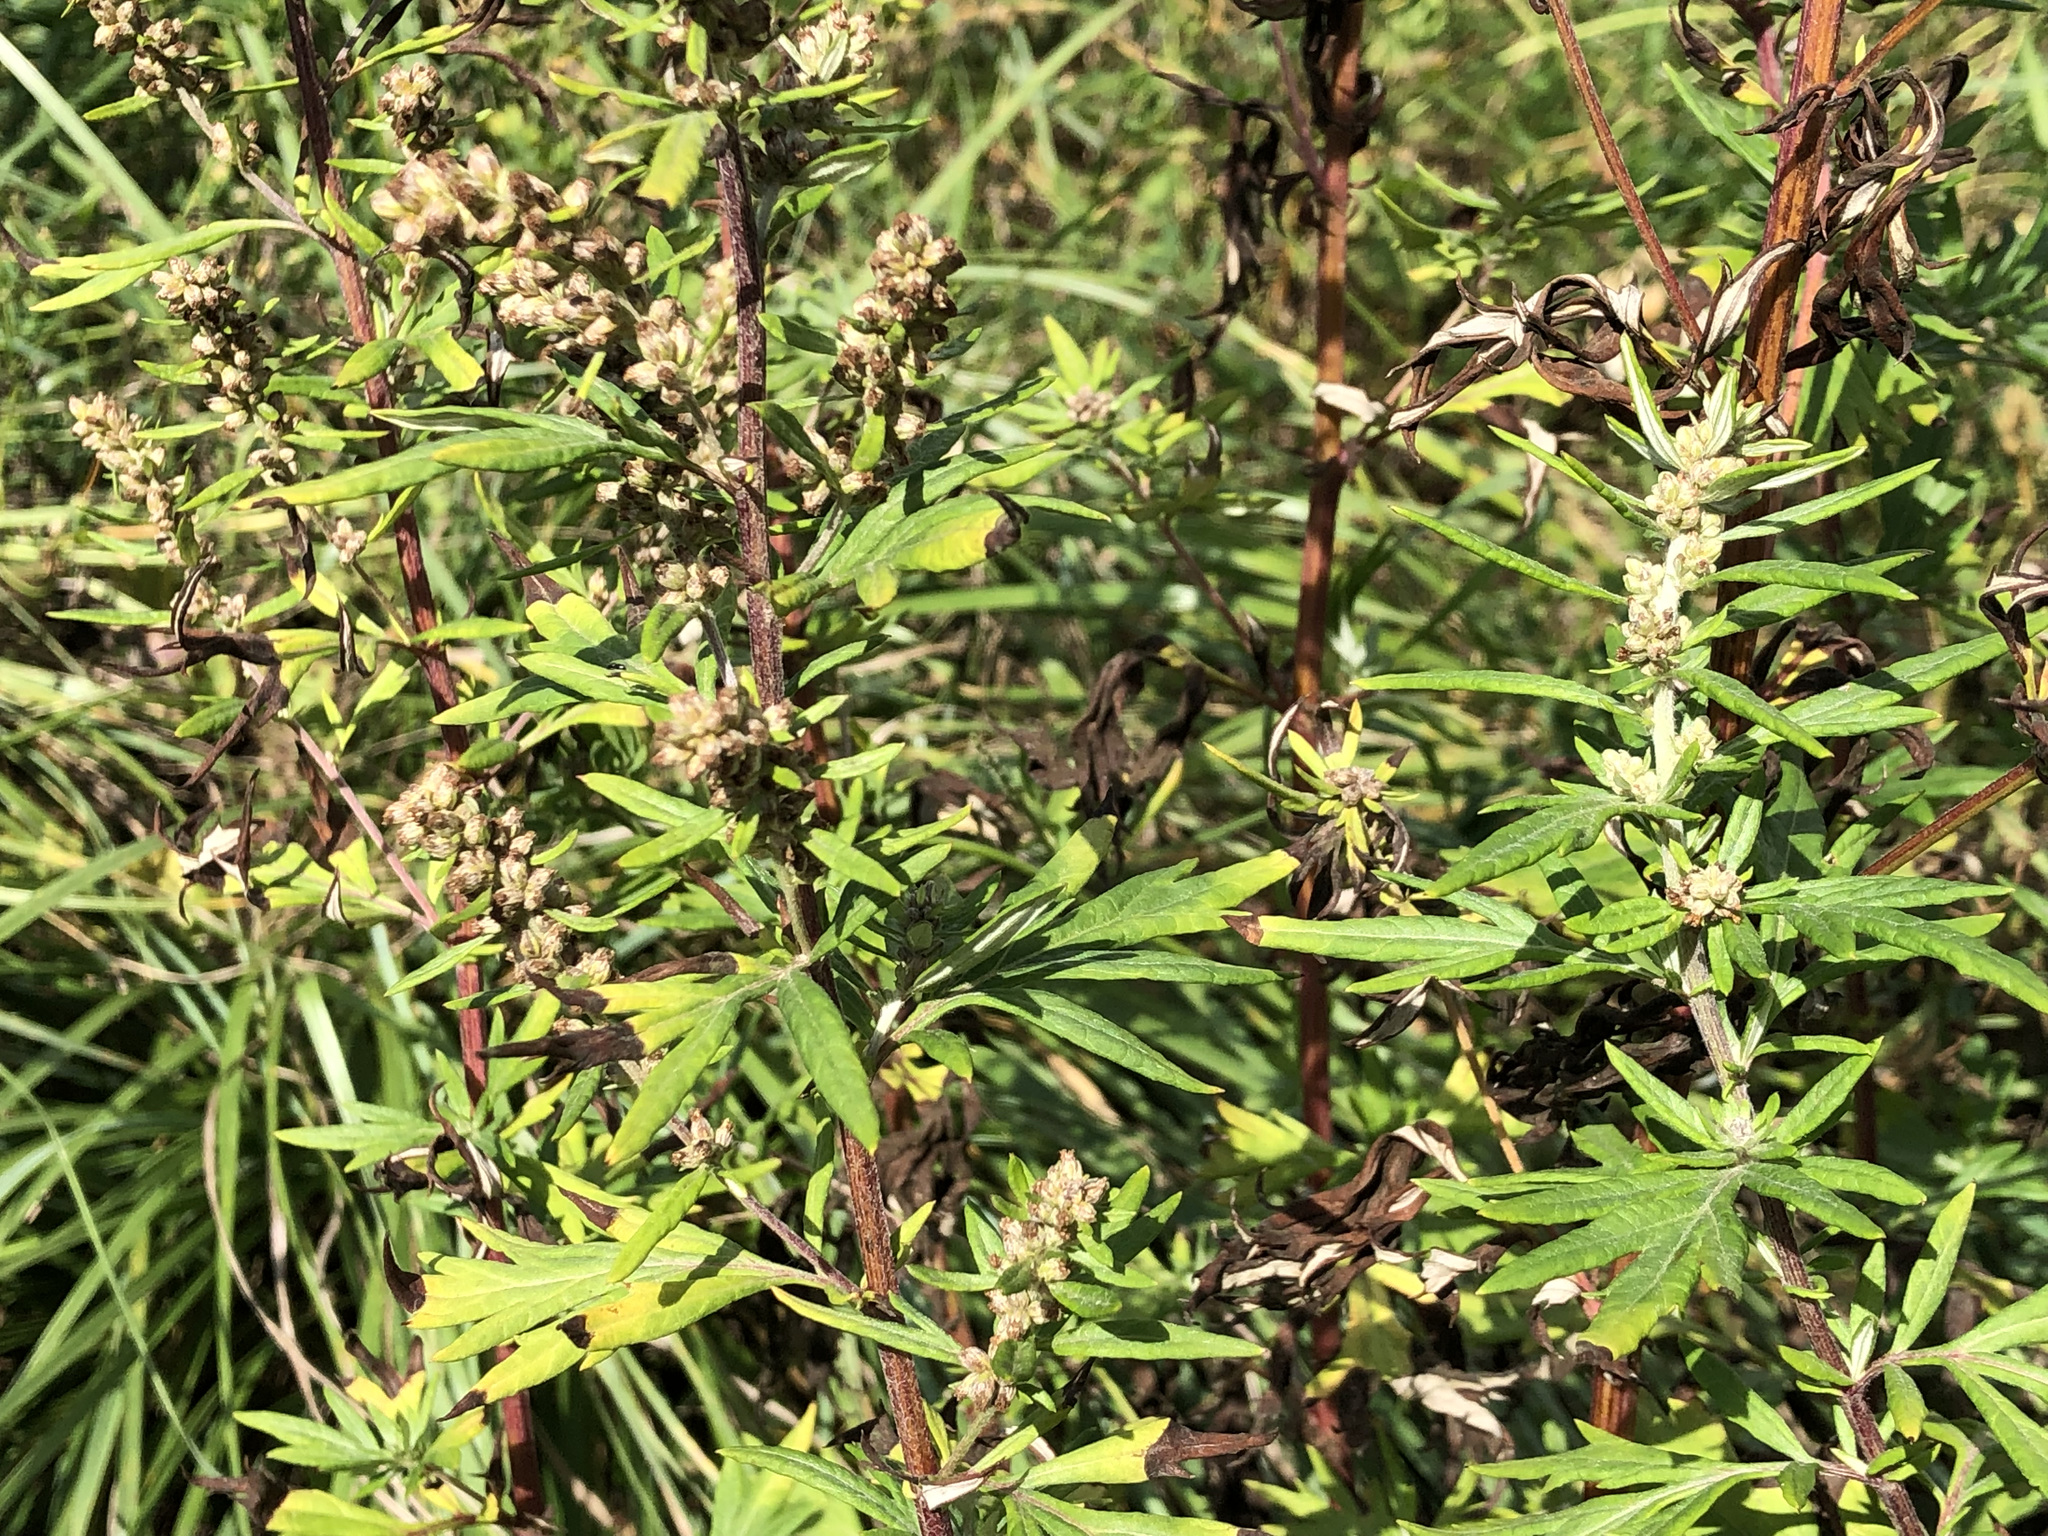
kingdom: Plantae
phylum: Tracheophyta
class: Magnoliopsida
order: Asterales
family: Asteraceae
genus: Artemisia
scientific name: Artemisia vulgaris
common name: Mugwort
